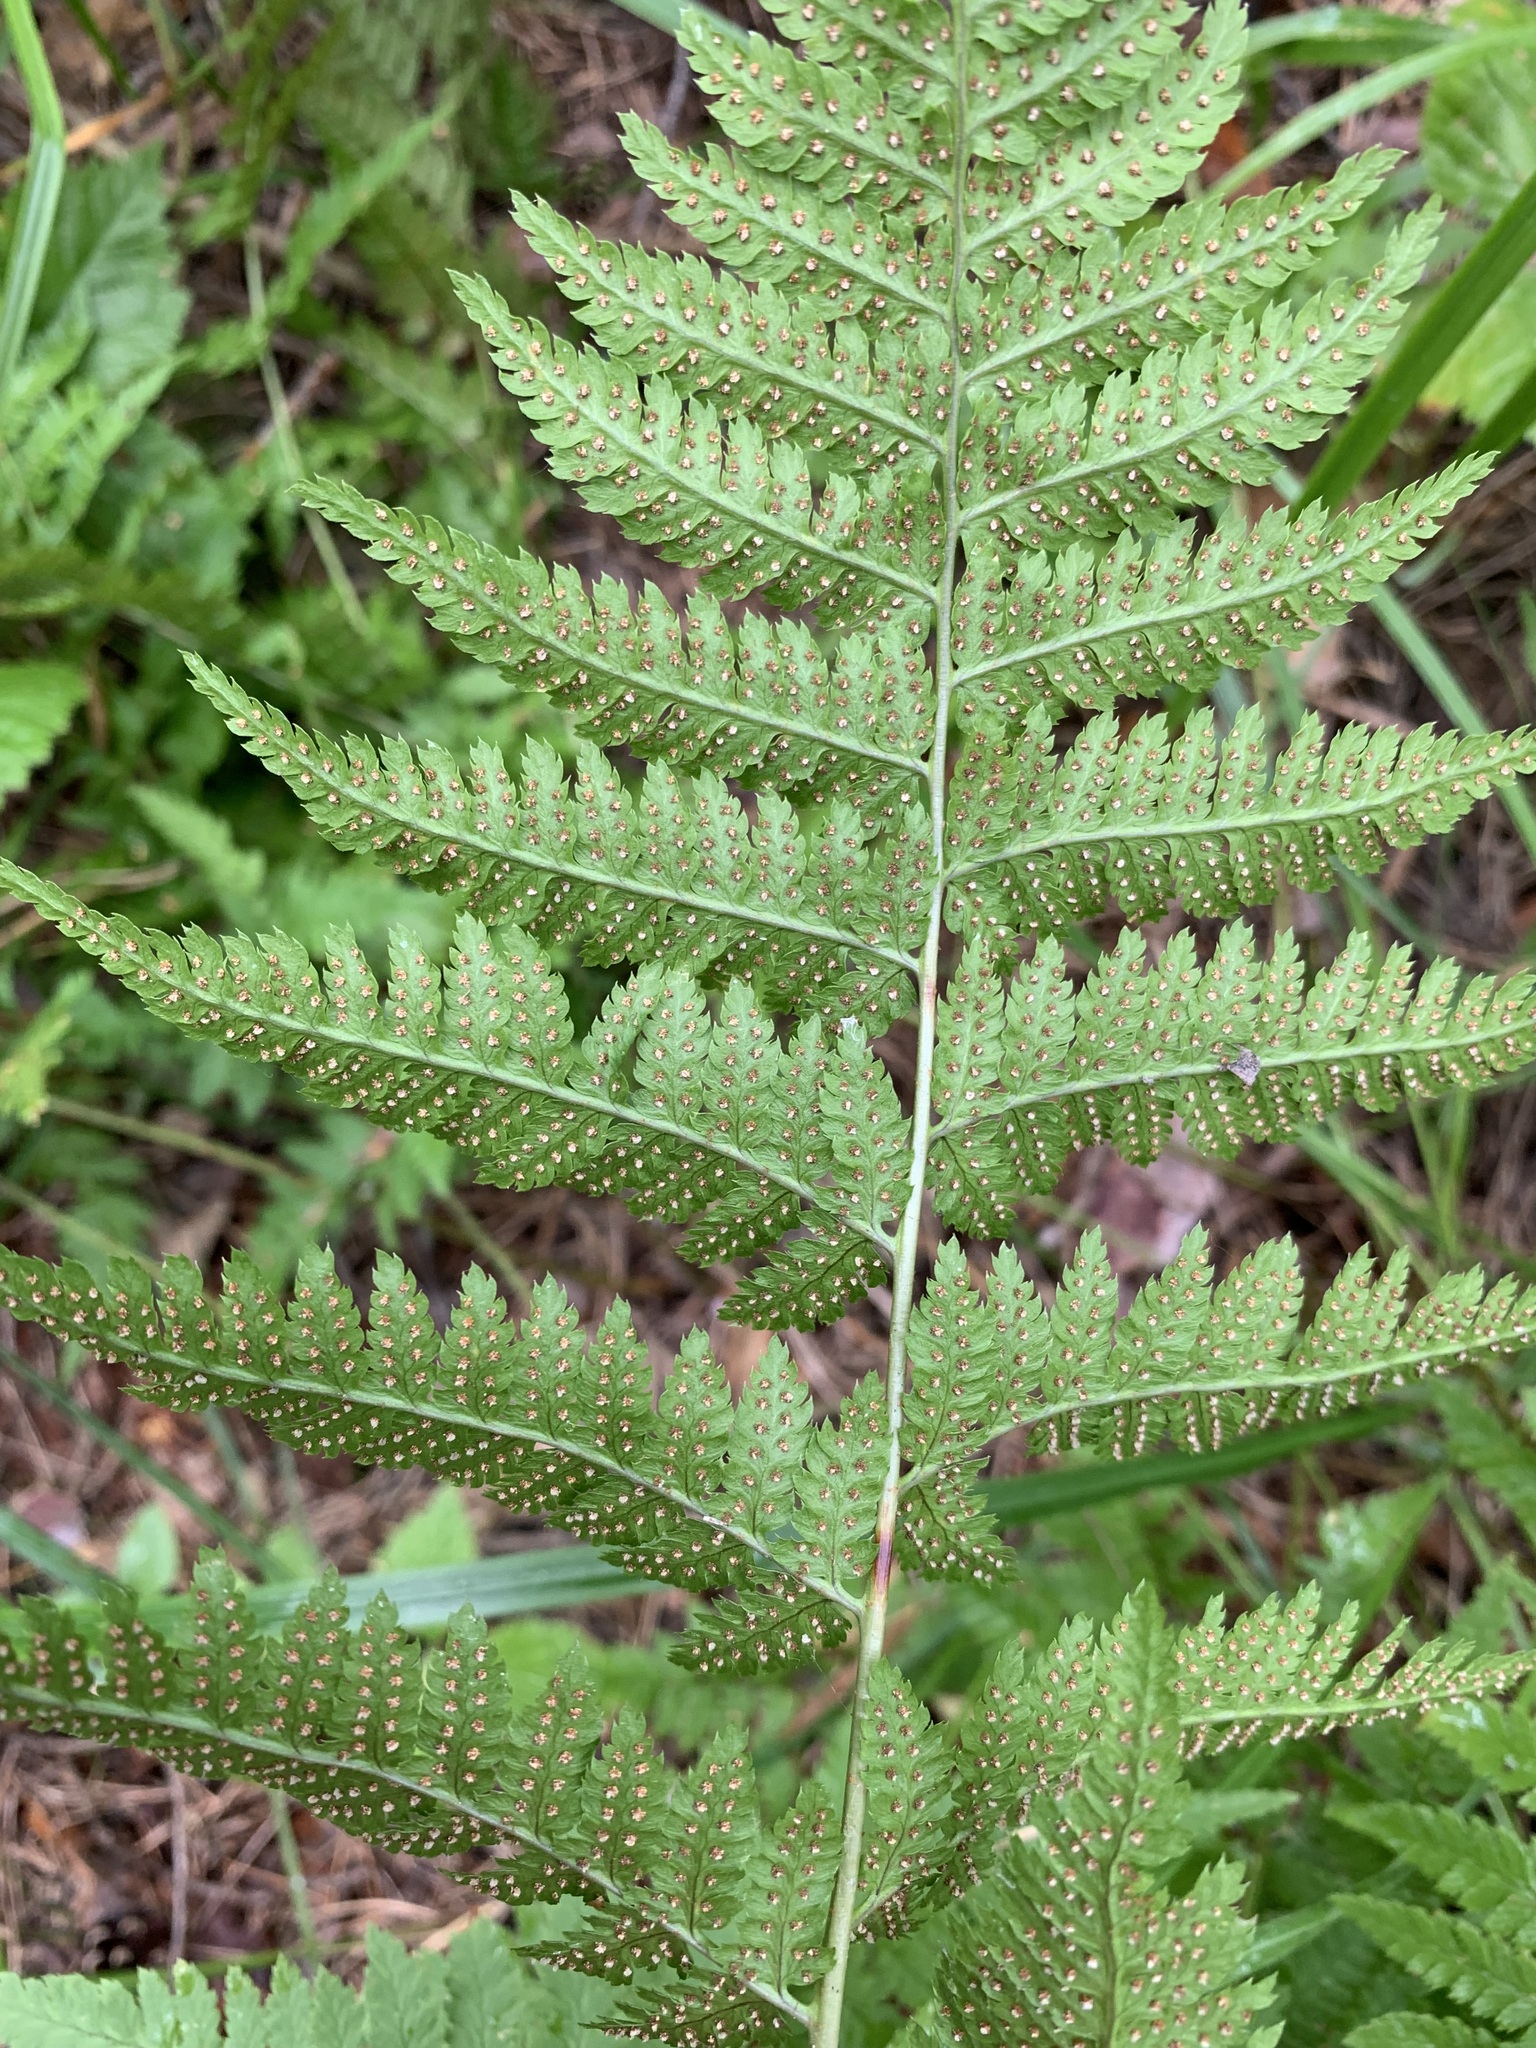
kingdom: Plantae
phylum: Tracheophyta
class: Polypodiopsida
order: Polypodiales
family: Dryopteridaceae
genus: Dryopteris
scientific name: Dryopteris carthusiana
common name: Narrow buckler-fern
